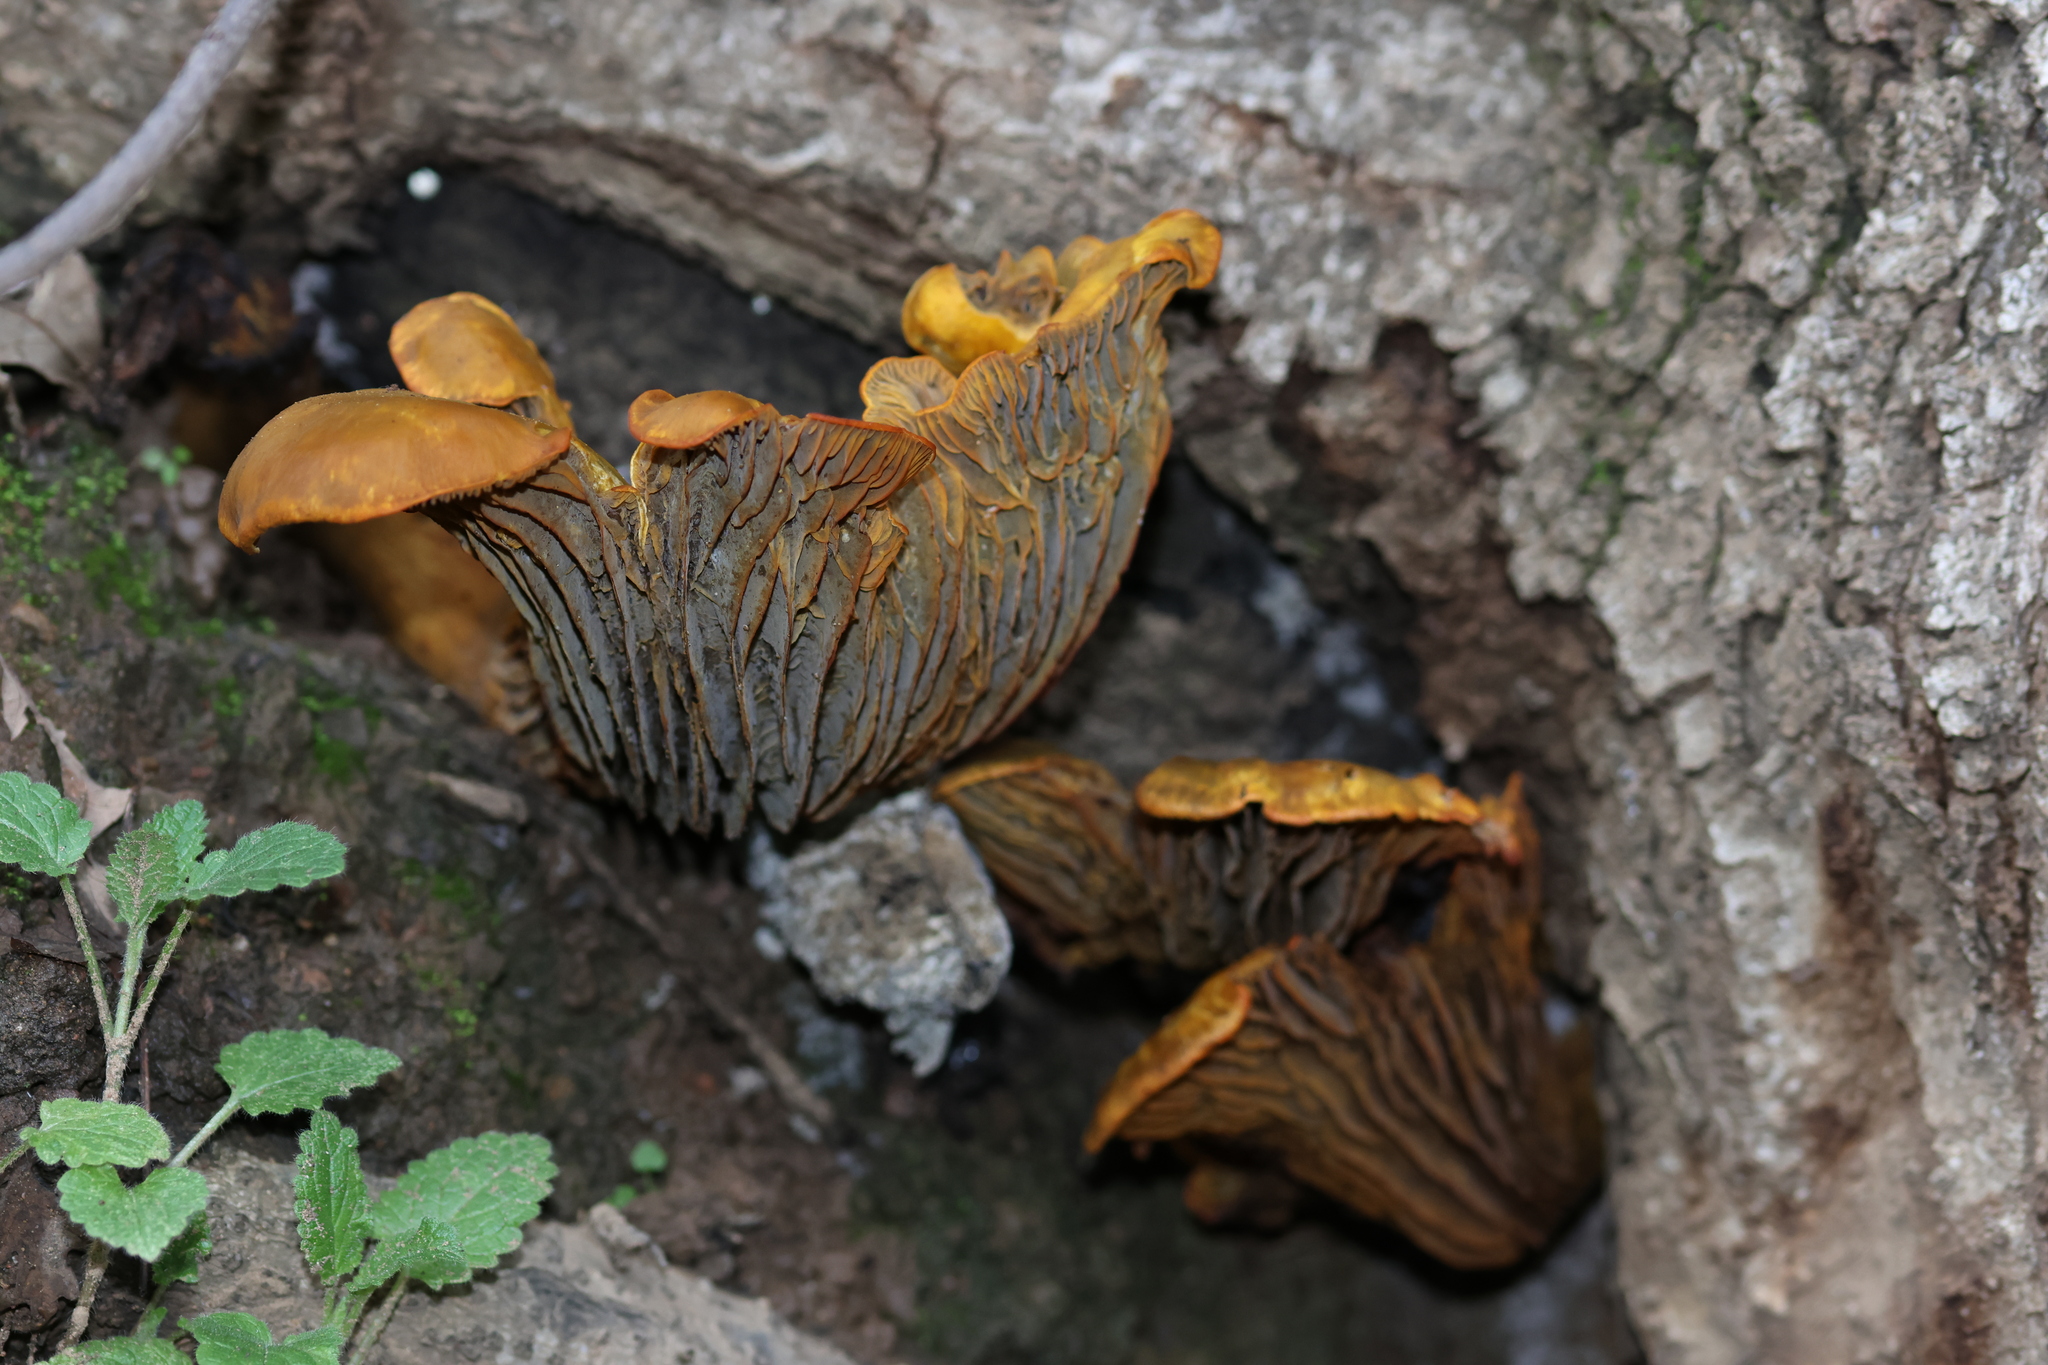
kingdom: Fungi
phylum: Basidiomycota
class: Agaricomycetes
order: Agaricales
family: Omphalotaceae
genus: Omphalotus
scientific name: Omphalotus olivascens
